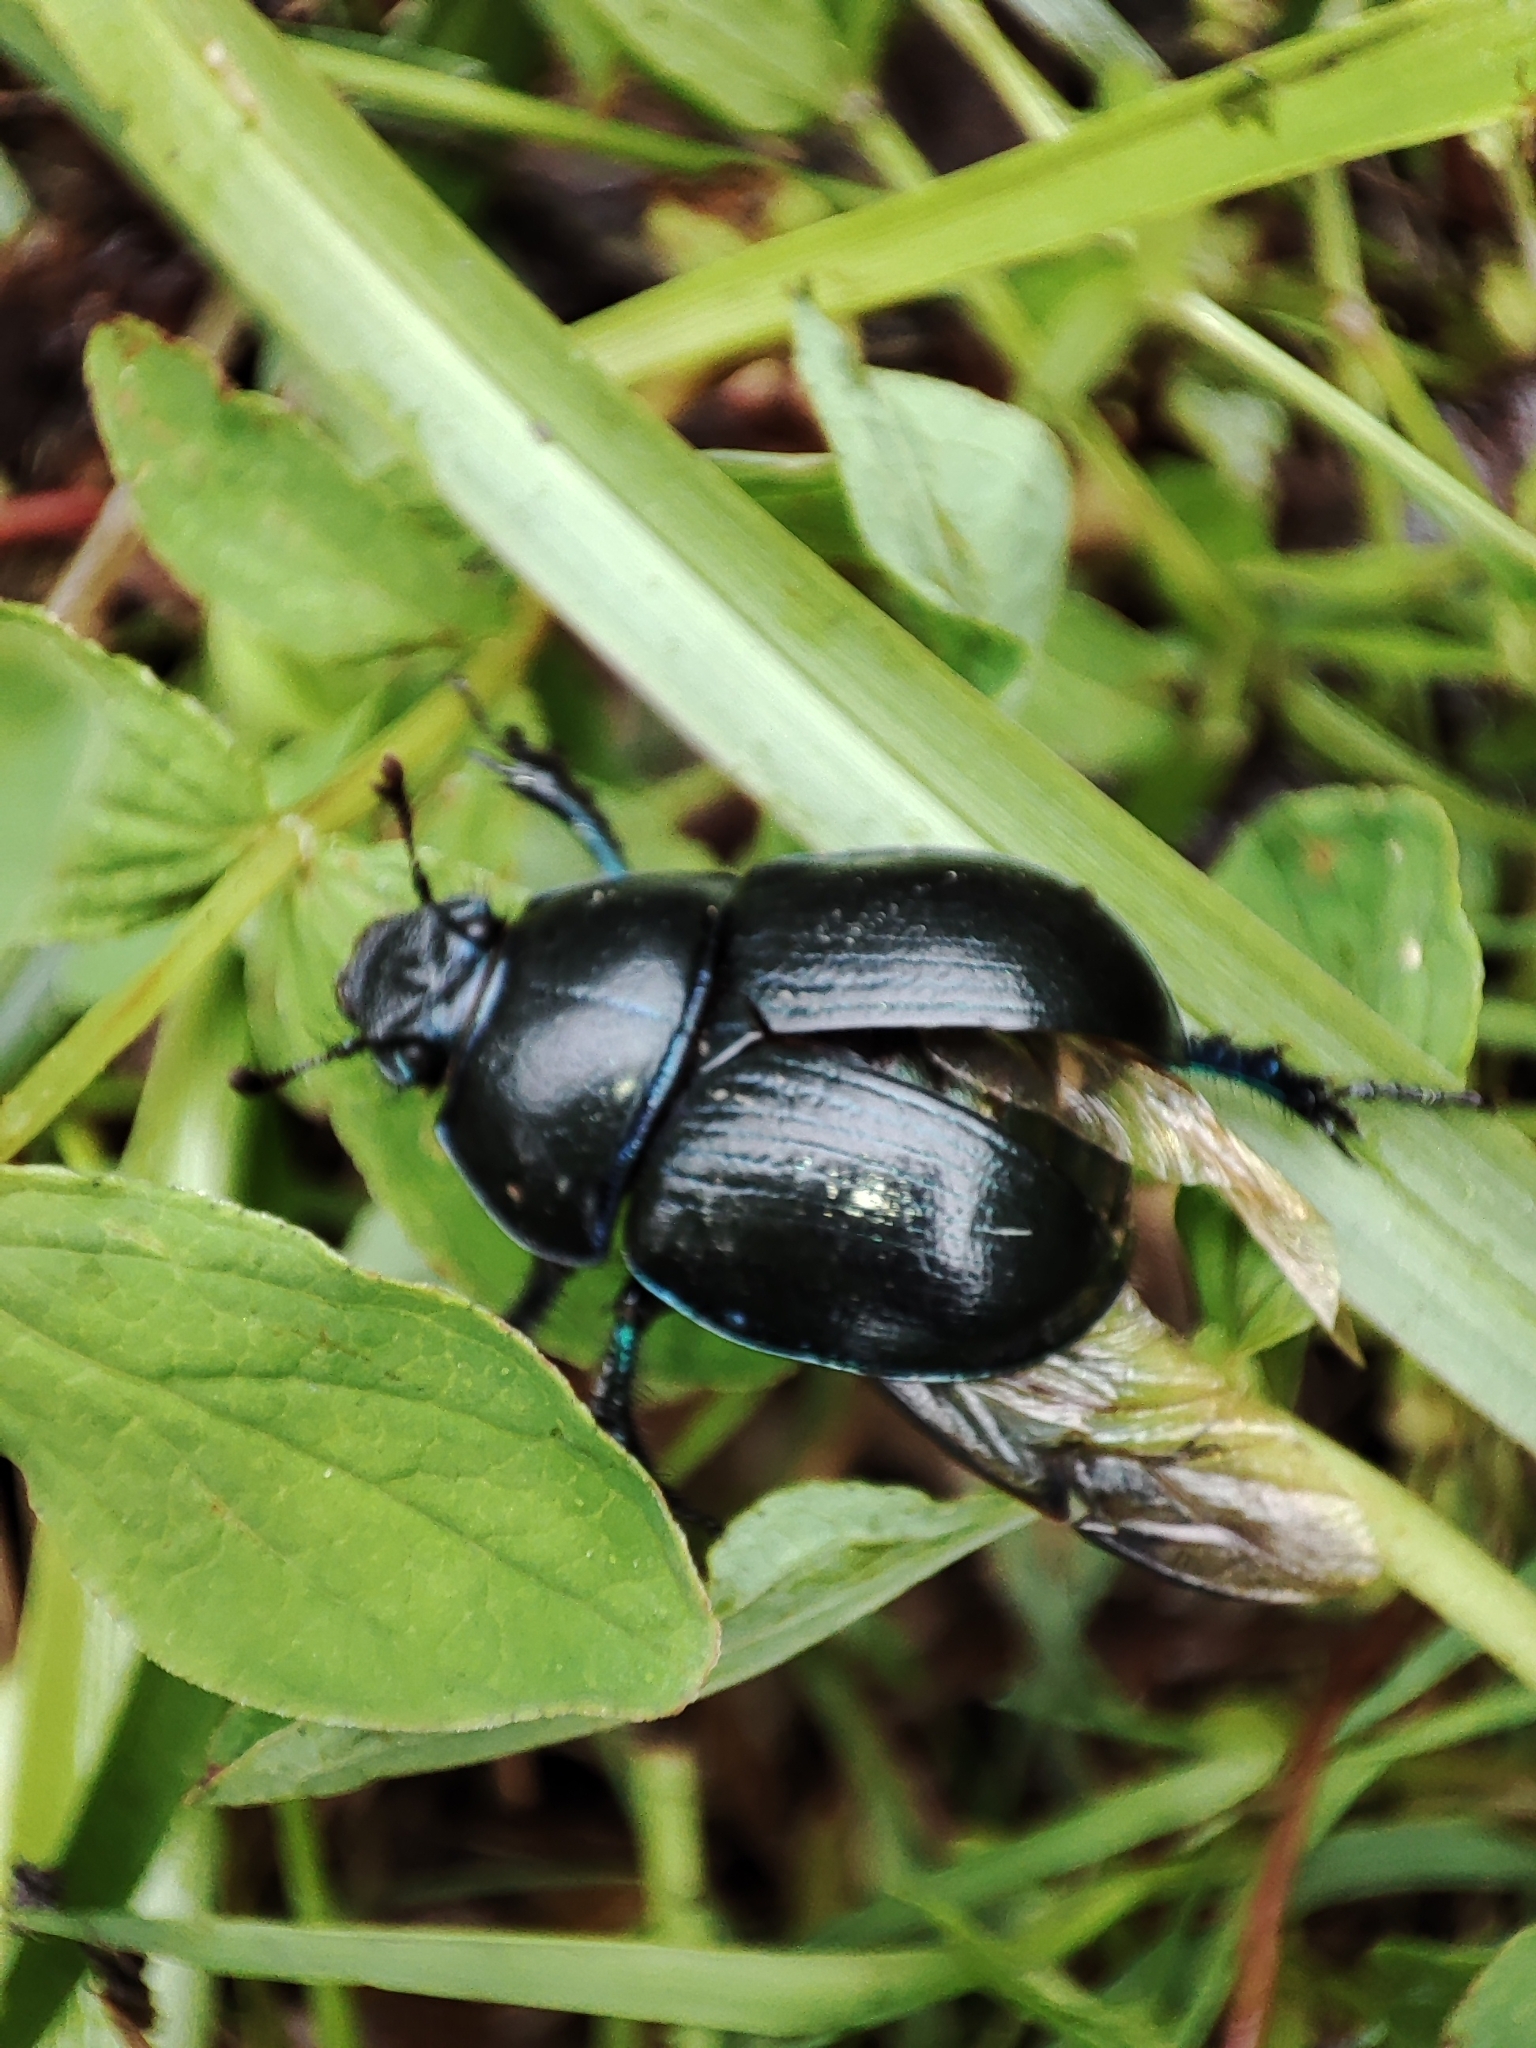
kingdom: Animalia
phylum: Arthropoda
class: Insecta
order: Coleoptera
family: Geotrupidae
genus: Anoplotrupes
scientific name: Anoplotrupes stercorosus
